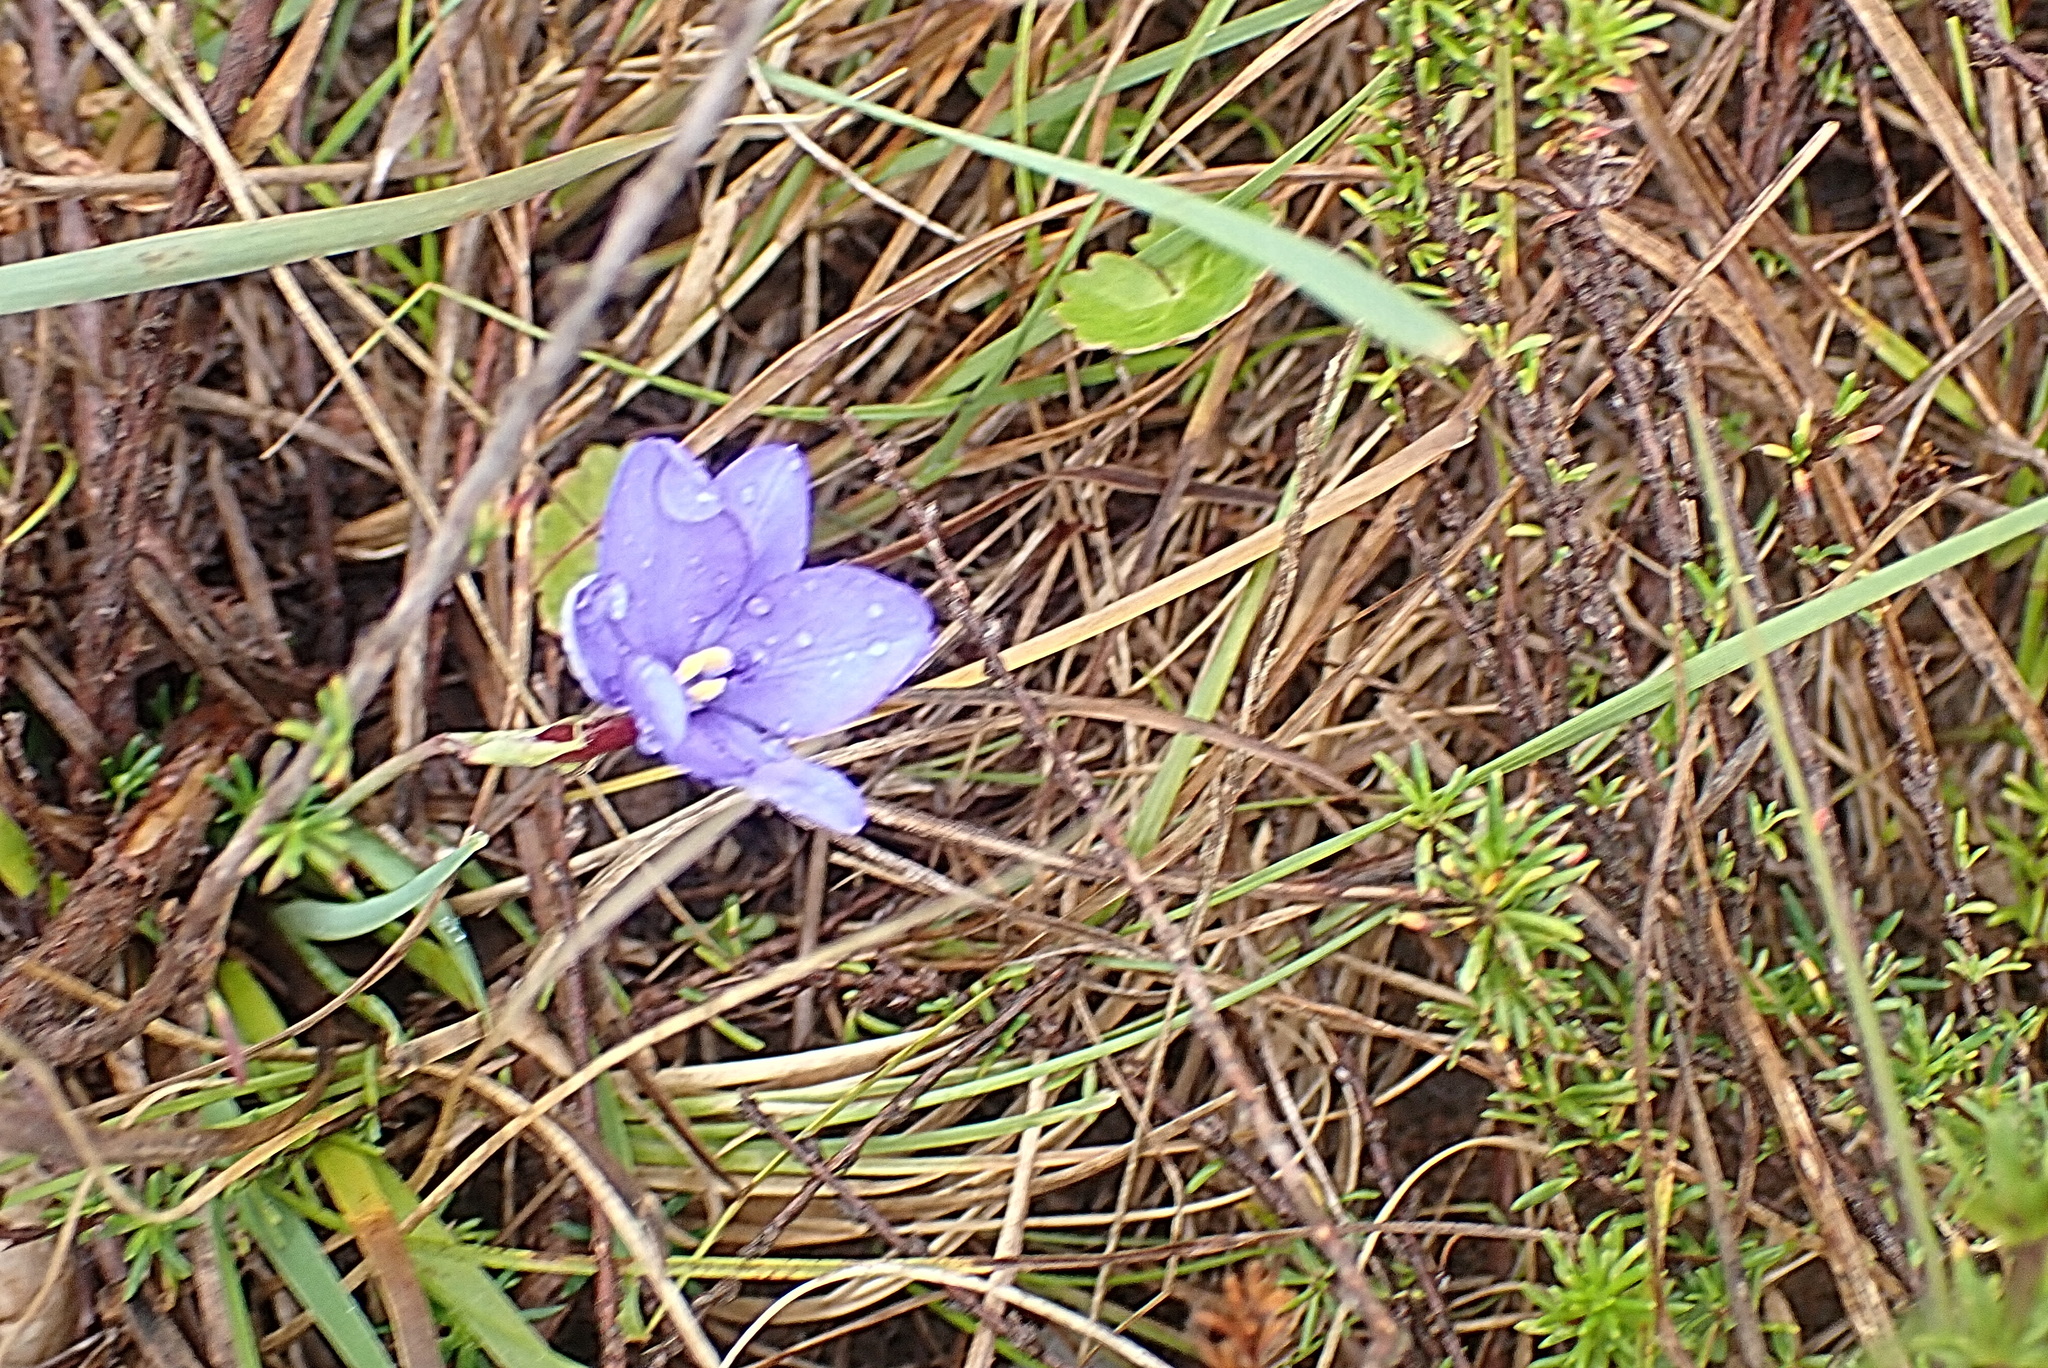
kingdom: Plantae
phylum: Tracheophyta
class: Liliopsida
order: Asparagales
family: Iridaceae
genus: Aristea
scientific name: Aristea nana
